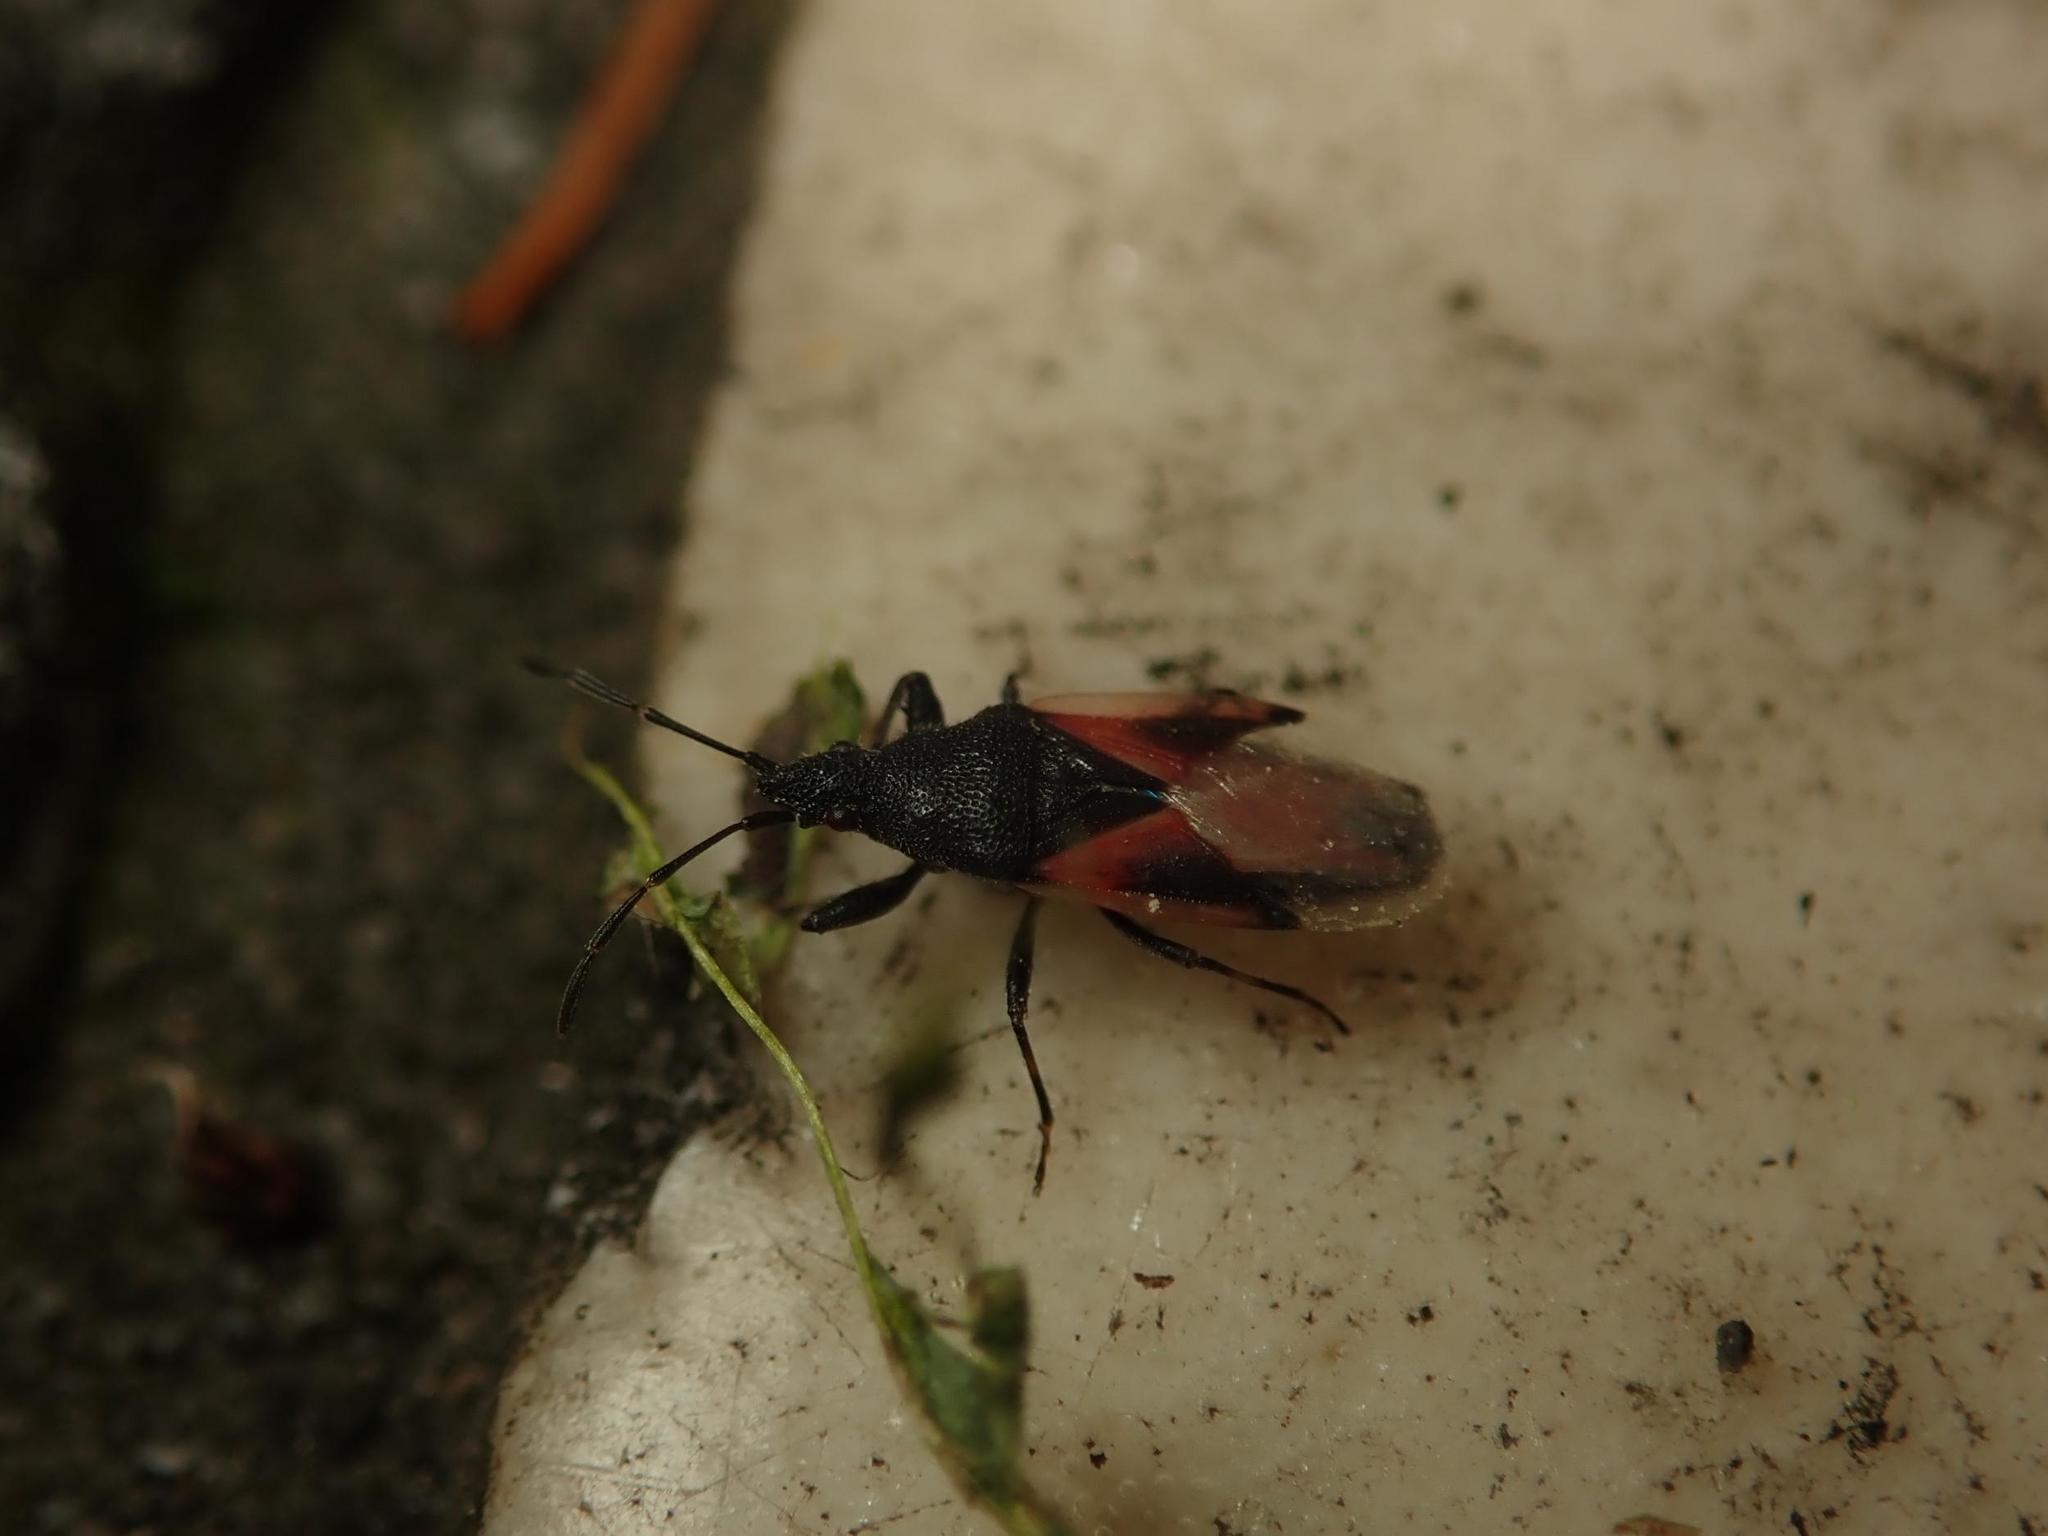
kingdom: Animalia
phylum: Arthropoda
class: Insecta
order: Hemiptera
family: Oxycarenidae
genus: Oxycarenus
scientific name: Oxycarenus lavaterae
